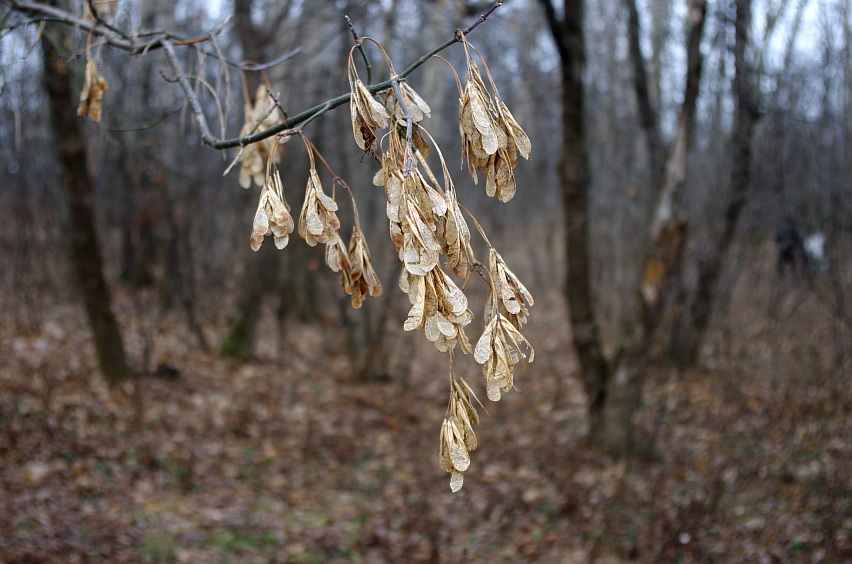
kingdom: Plantae
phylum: Tracheophyta
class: Magnoliopsida
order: Sapindales
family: Sapindaceae
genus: Acer
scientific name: Acer negundo
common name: Ashleaf maple
